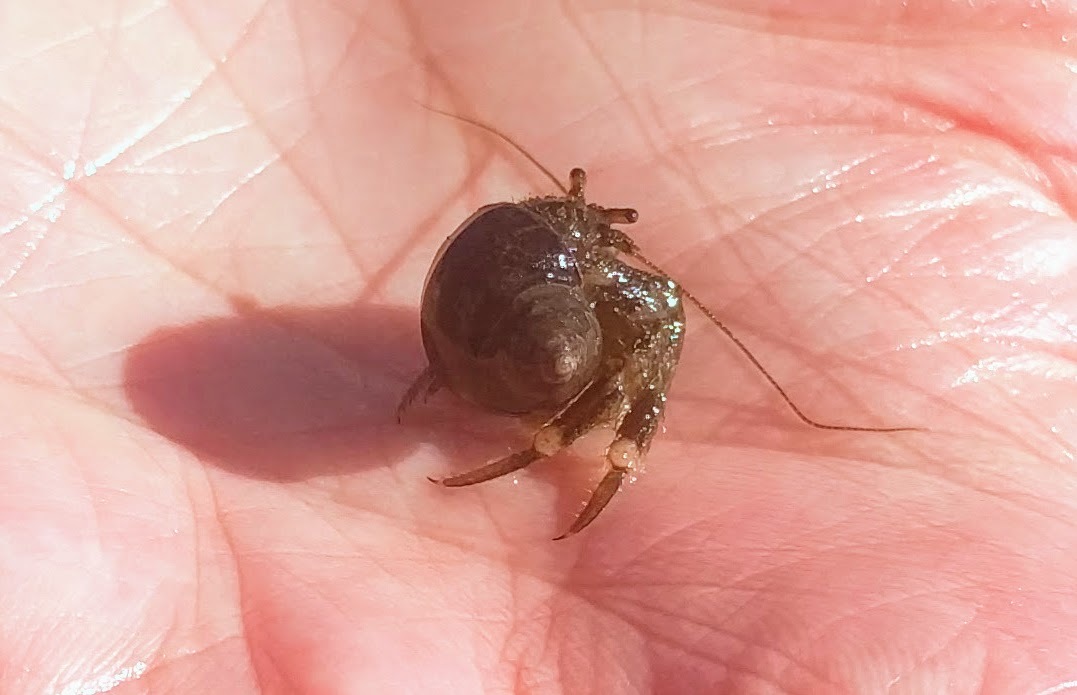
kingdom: Animalia
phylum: Arthropoda
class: Malacostraca
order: Decapoda
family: Paguridae
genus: Pagurus
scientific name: Pagurus hirsutiusculus
